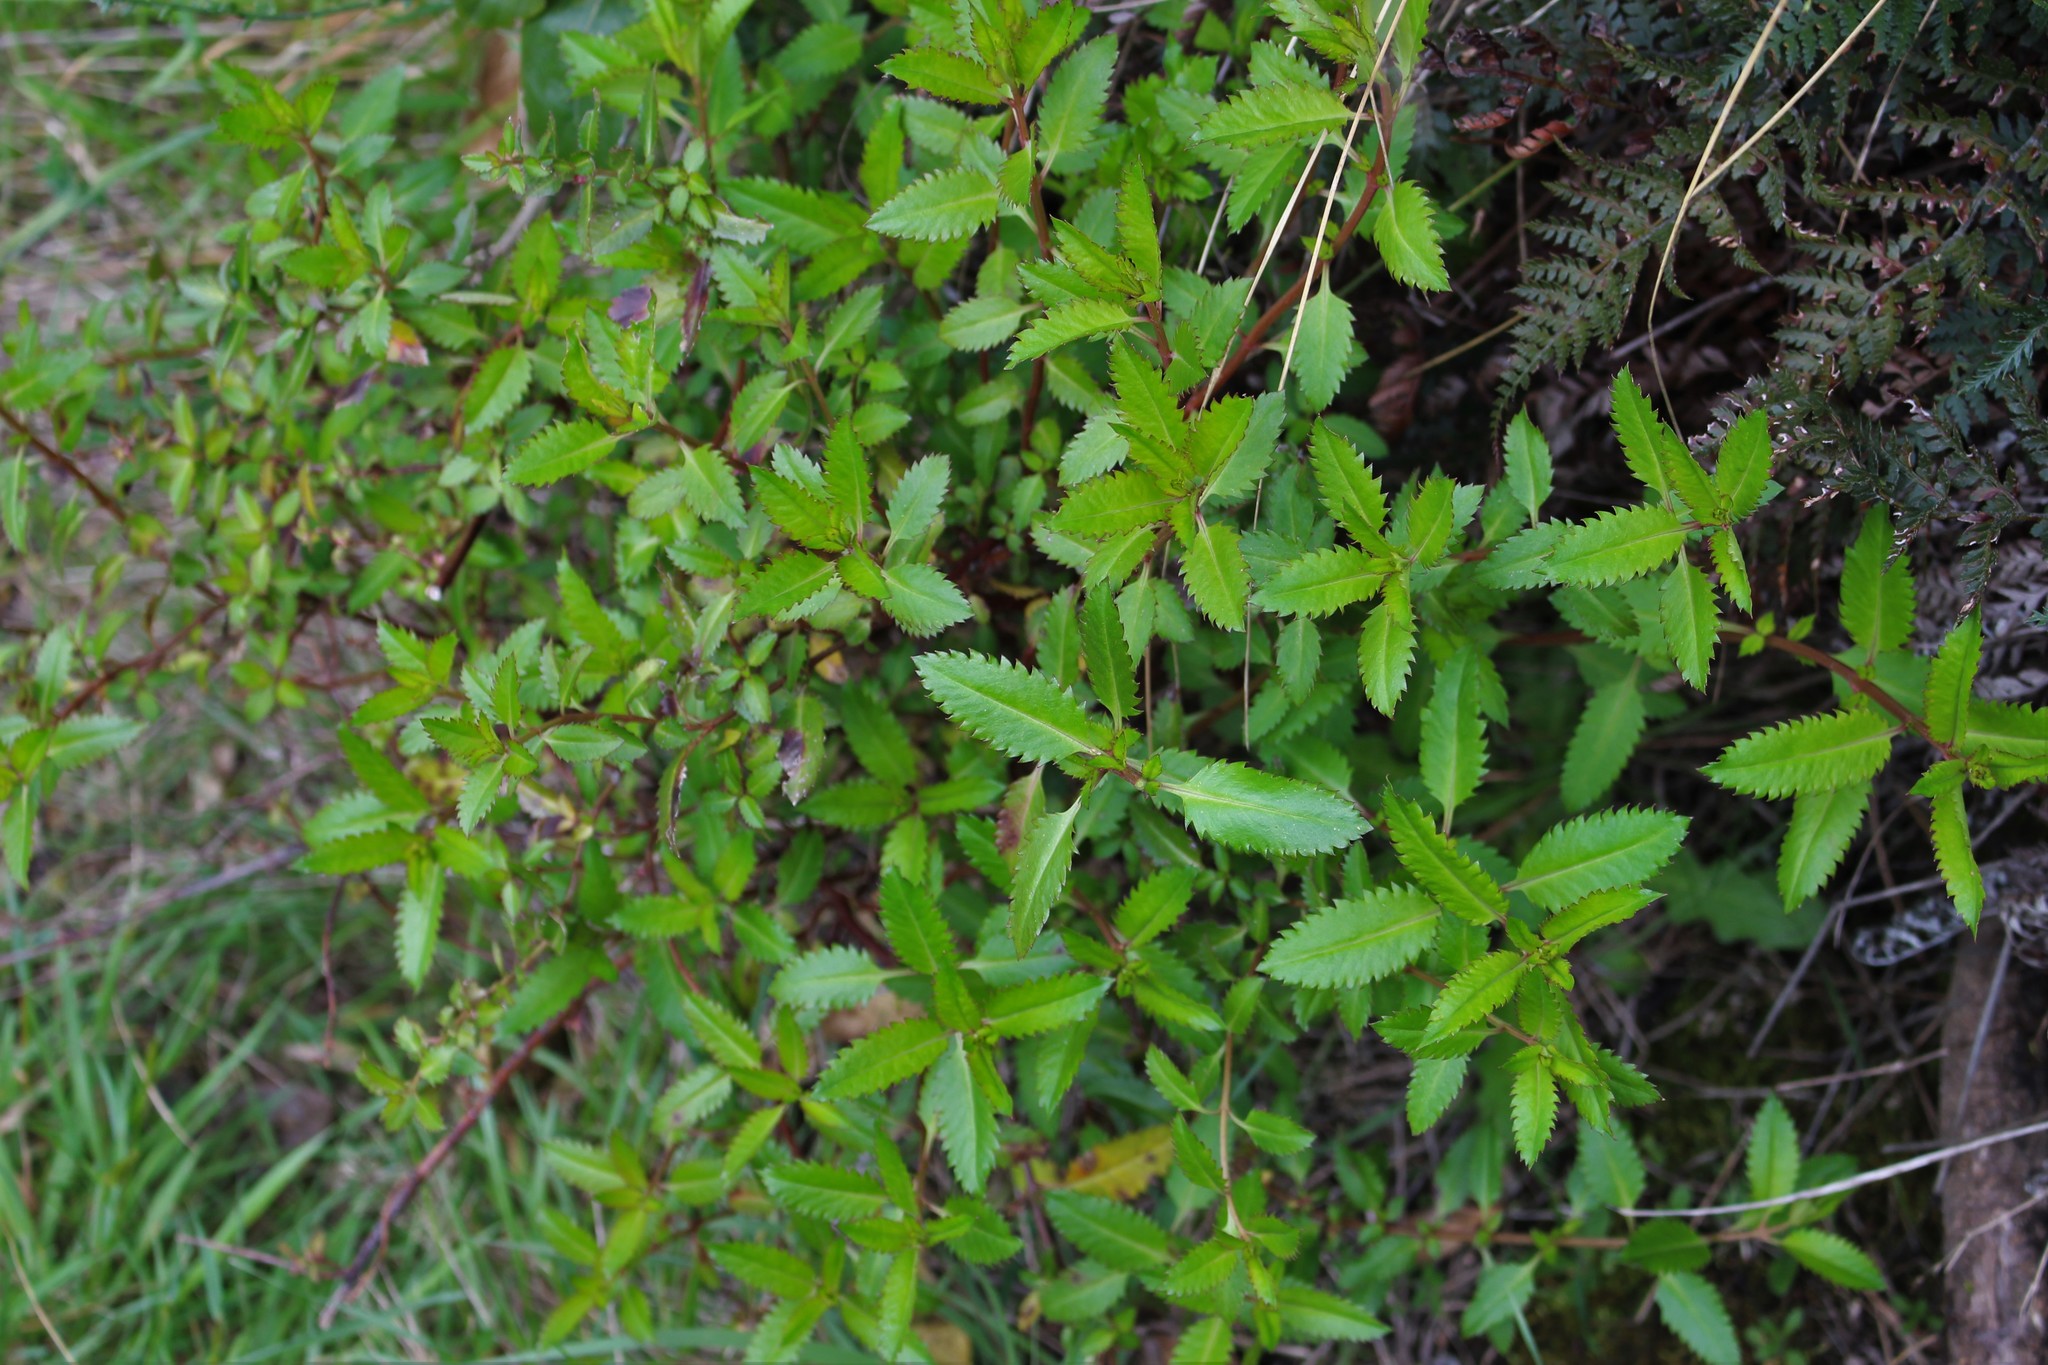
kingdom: Plantae
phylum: Tracheophyta
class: Magnoliopsida
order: Saxifragales
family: Haloragaceae
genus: Haloragis
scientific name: Haloragis erecta
